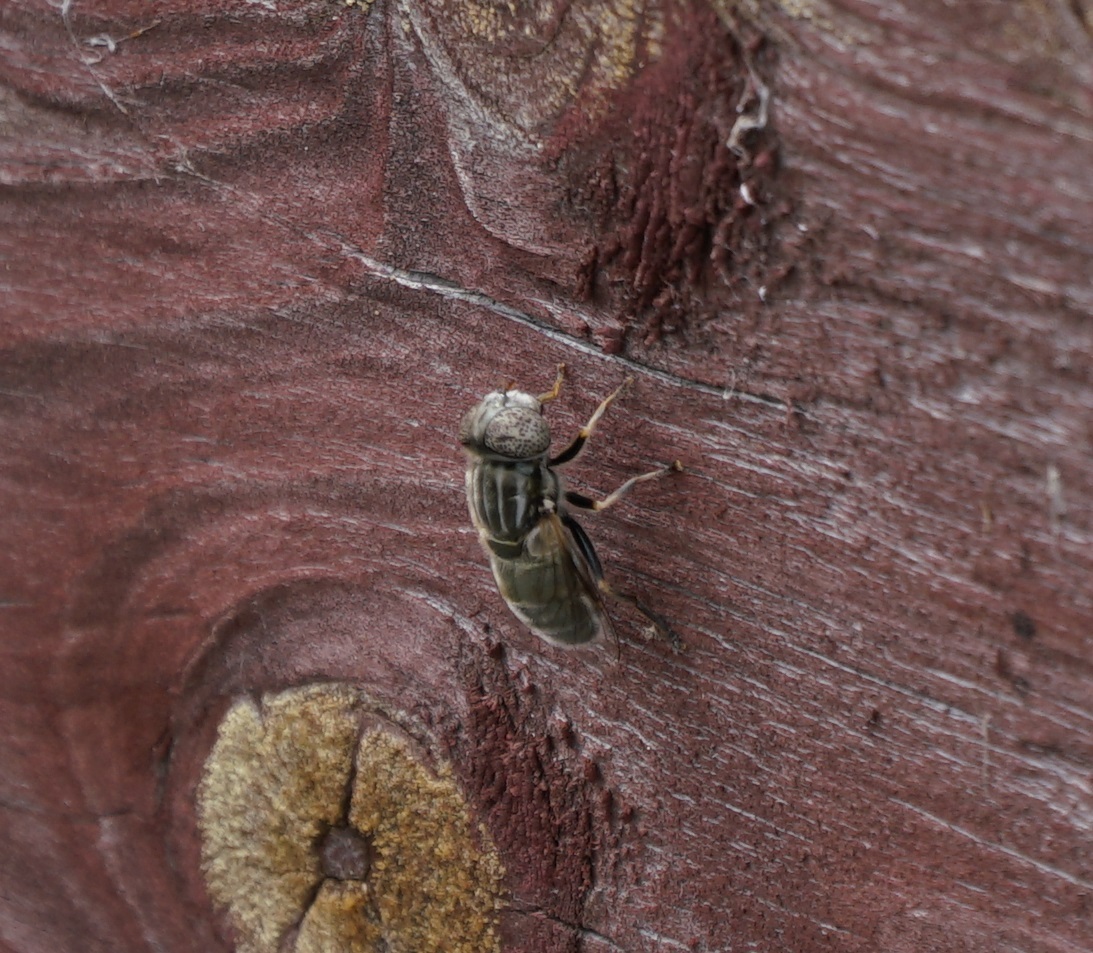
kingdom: Animalia
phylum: Arthropoda
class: Insecta
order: Diptera
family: Syrphidae
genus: Eristalinus
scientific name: Eristalinus aeneus
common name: Syrphid fly
